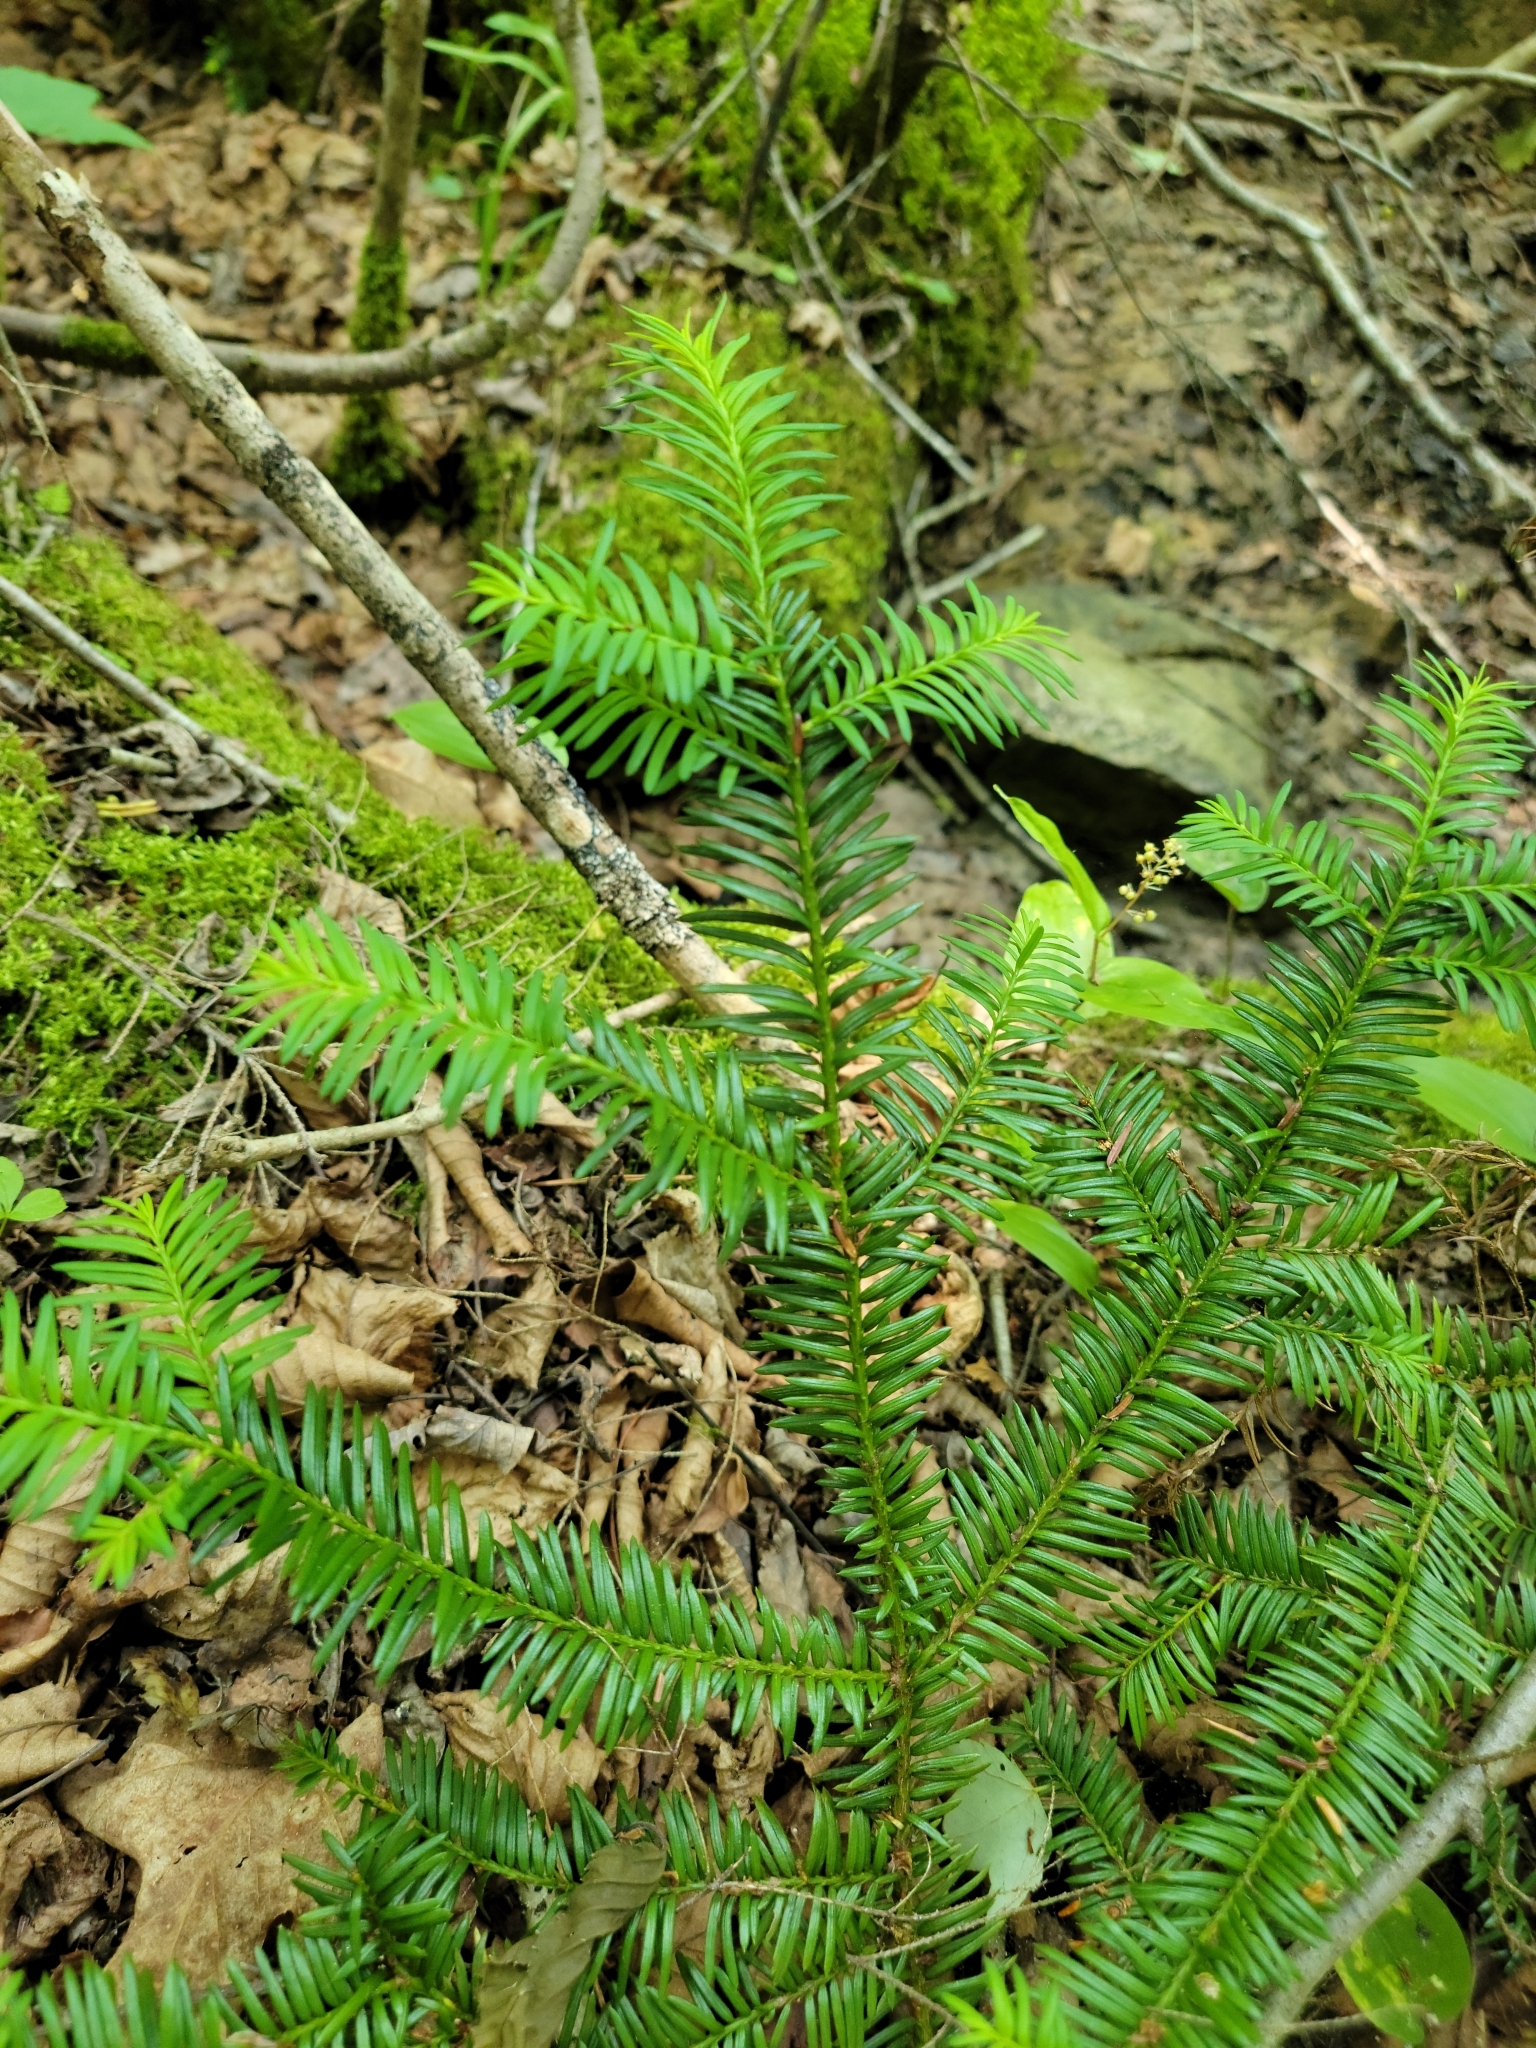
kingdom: Plantae
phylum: Tracheophyta
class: Pinopsida
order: Pinales
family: Taxaceae
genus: Taxus
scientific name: Taxus canadensis
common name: American yew
